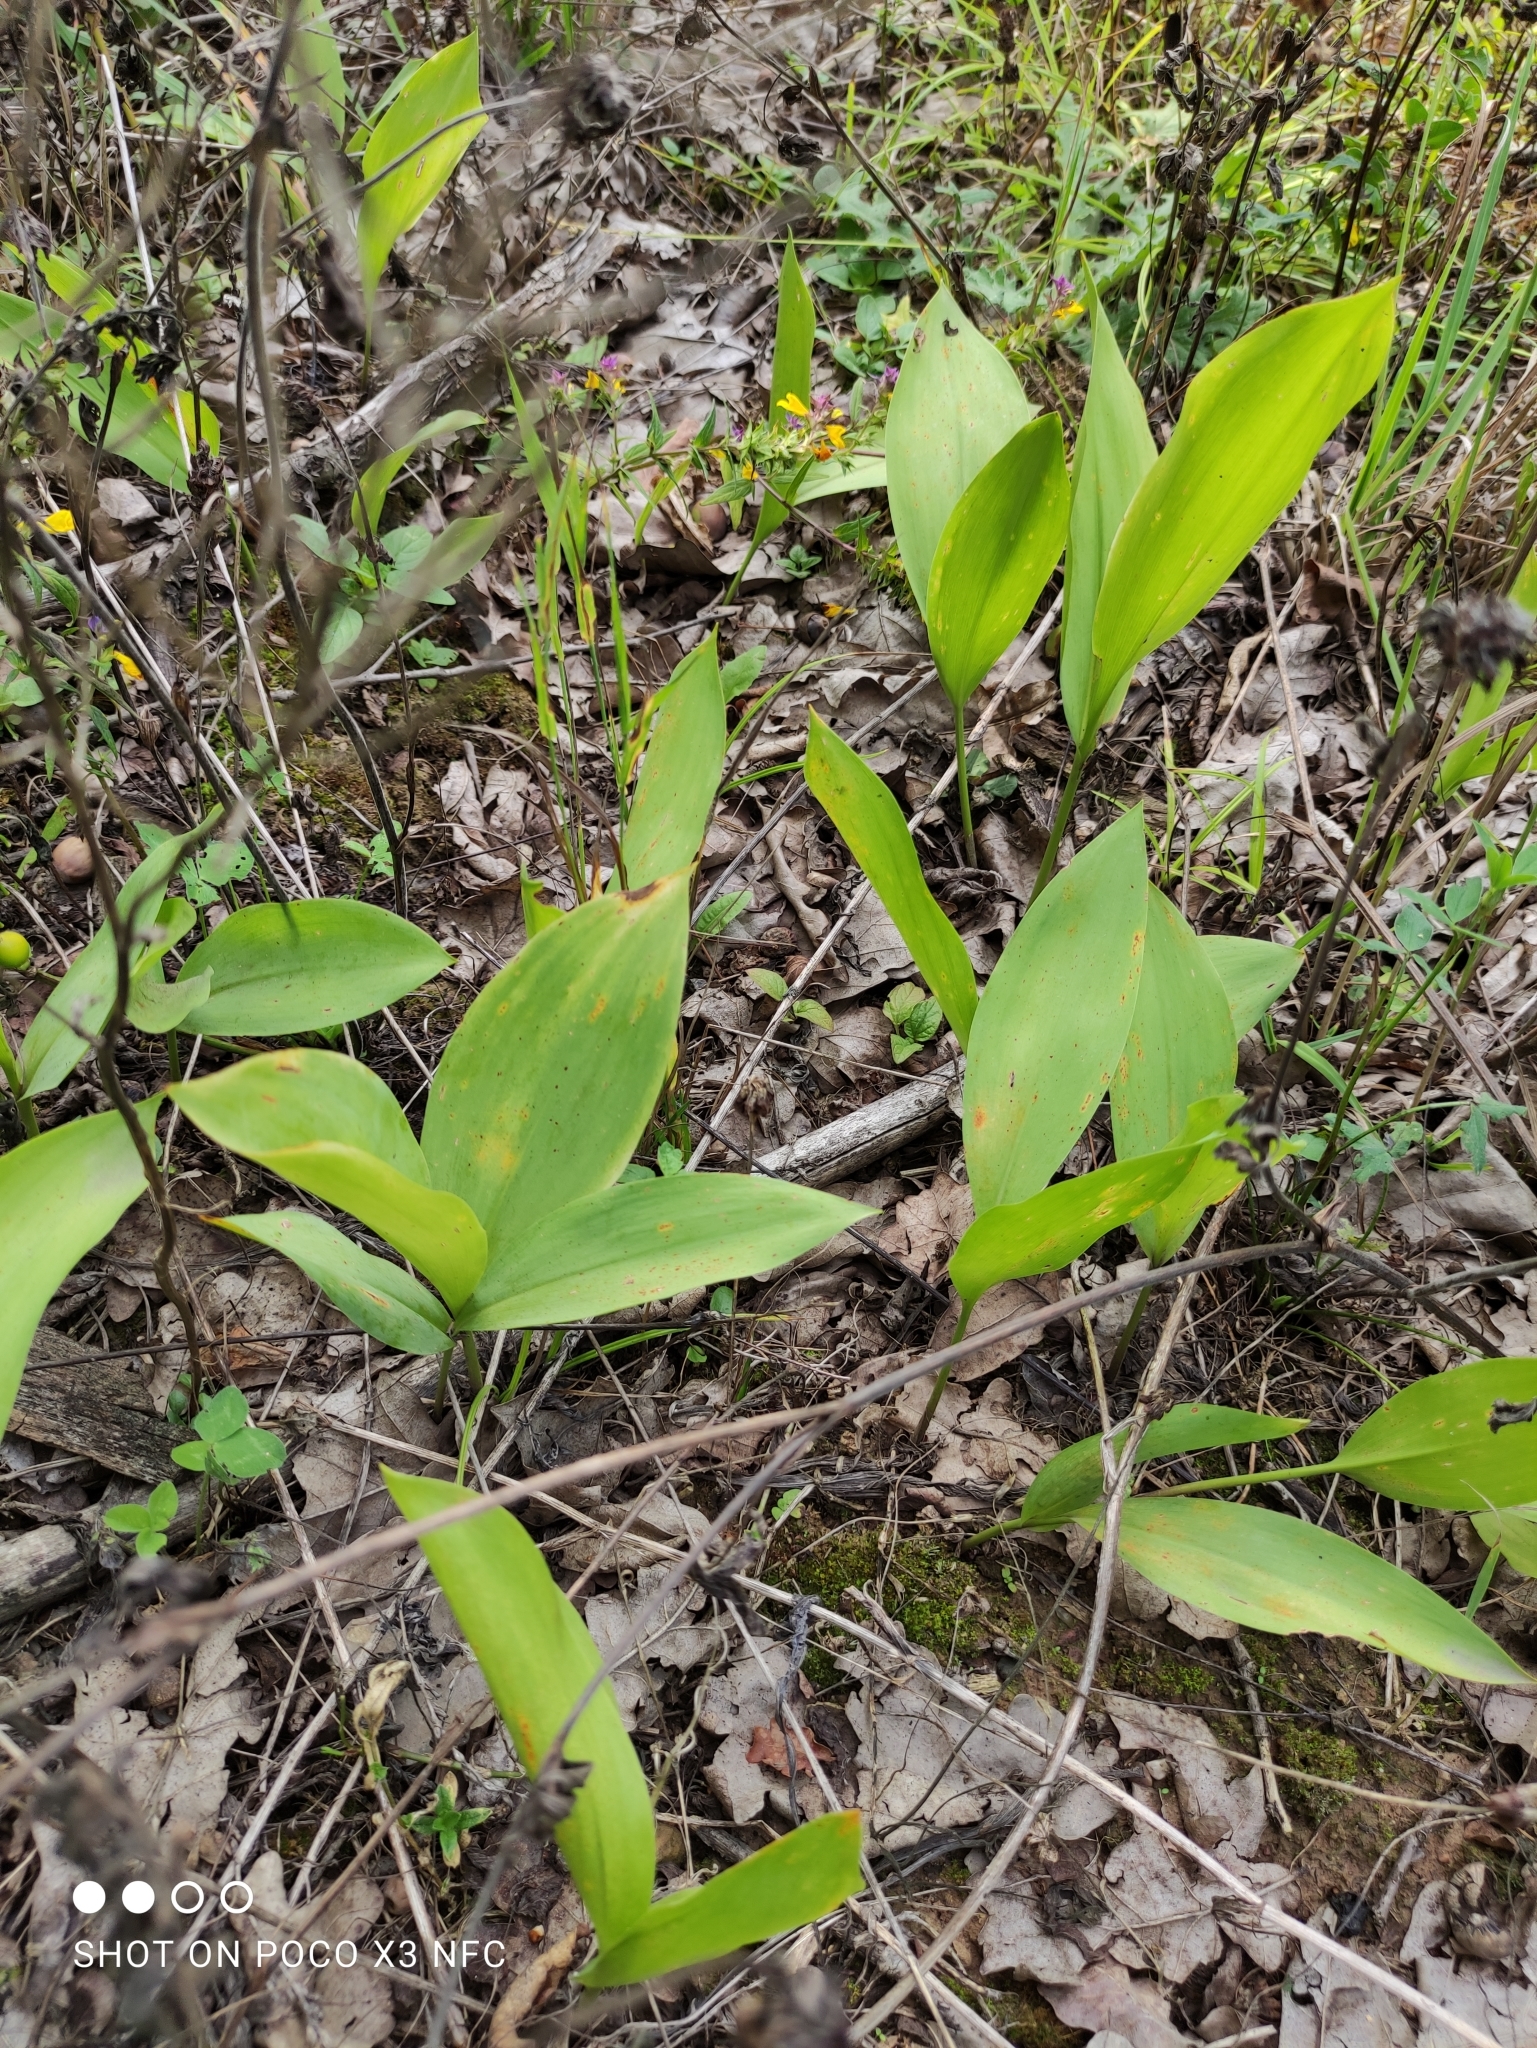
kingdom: Plantae
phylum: Tracheophyta
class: Liliopsida
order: Asparagales
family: Asparagaceae
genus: Convallaria
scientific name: Convallaria majalis
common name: Lily-of-the-valley
